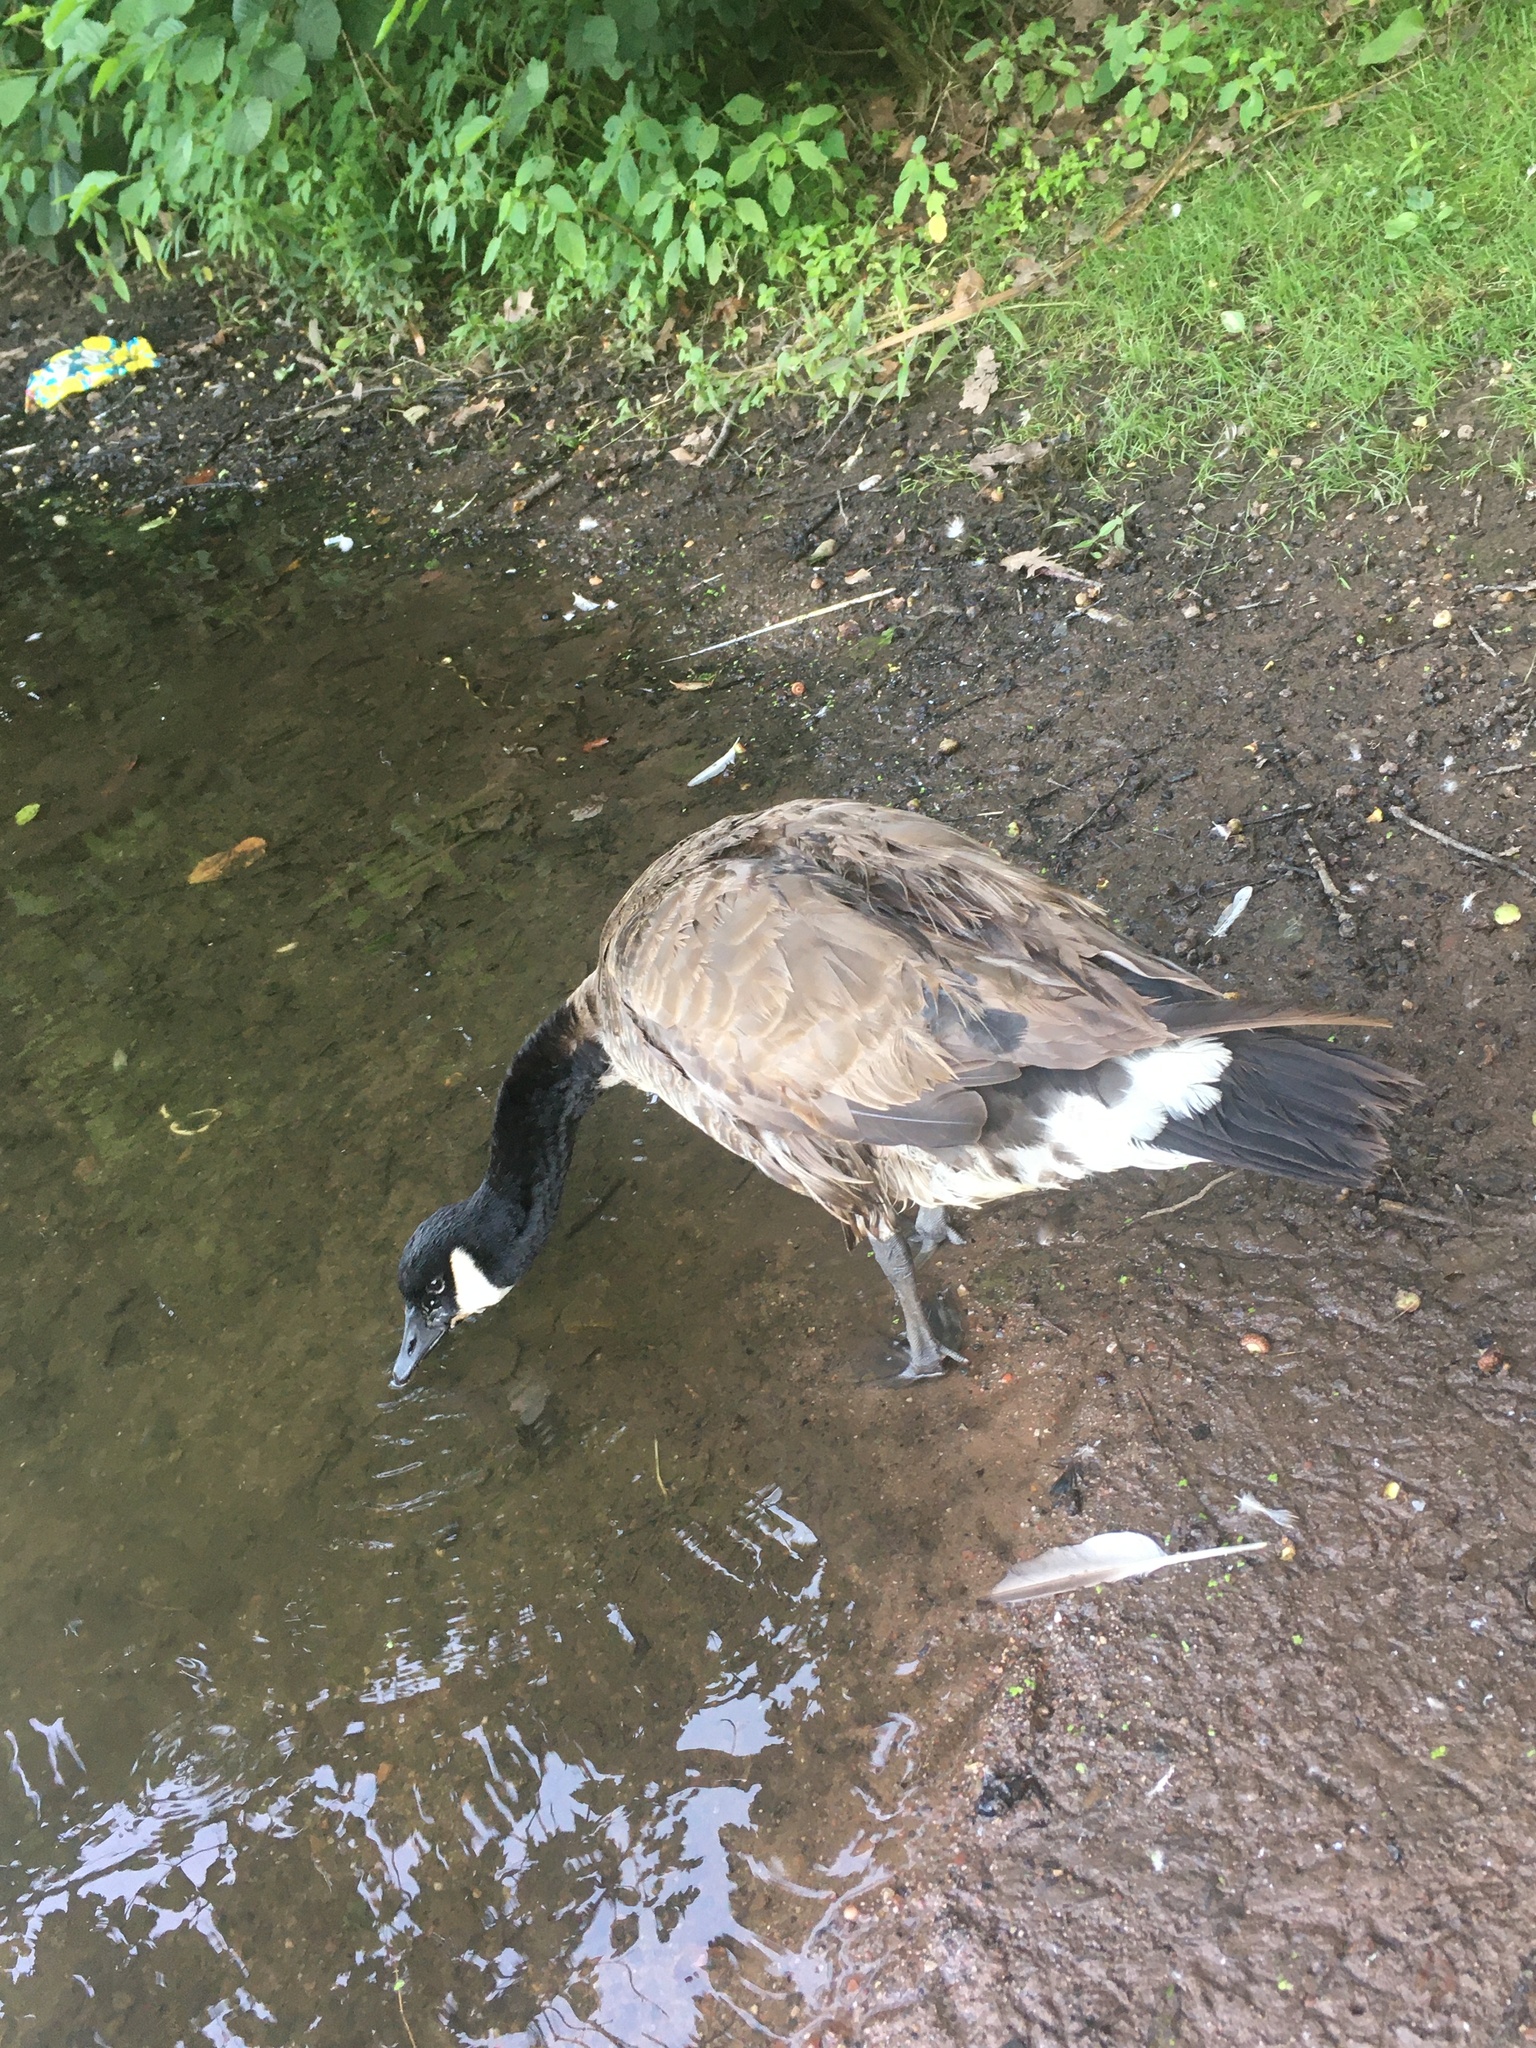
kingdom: Animalia
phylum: Chordata
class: Aves
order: Anseriformes
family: Anatidae
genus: Branta
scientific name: Branta canadensis
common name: Canada goose
